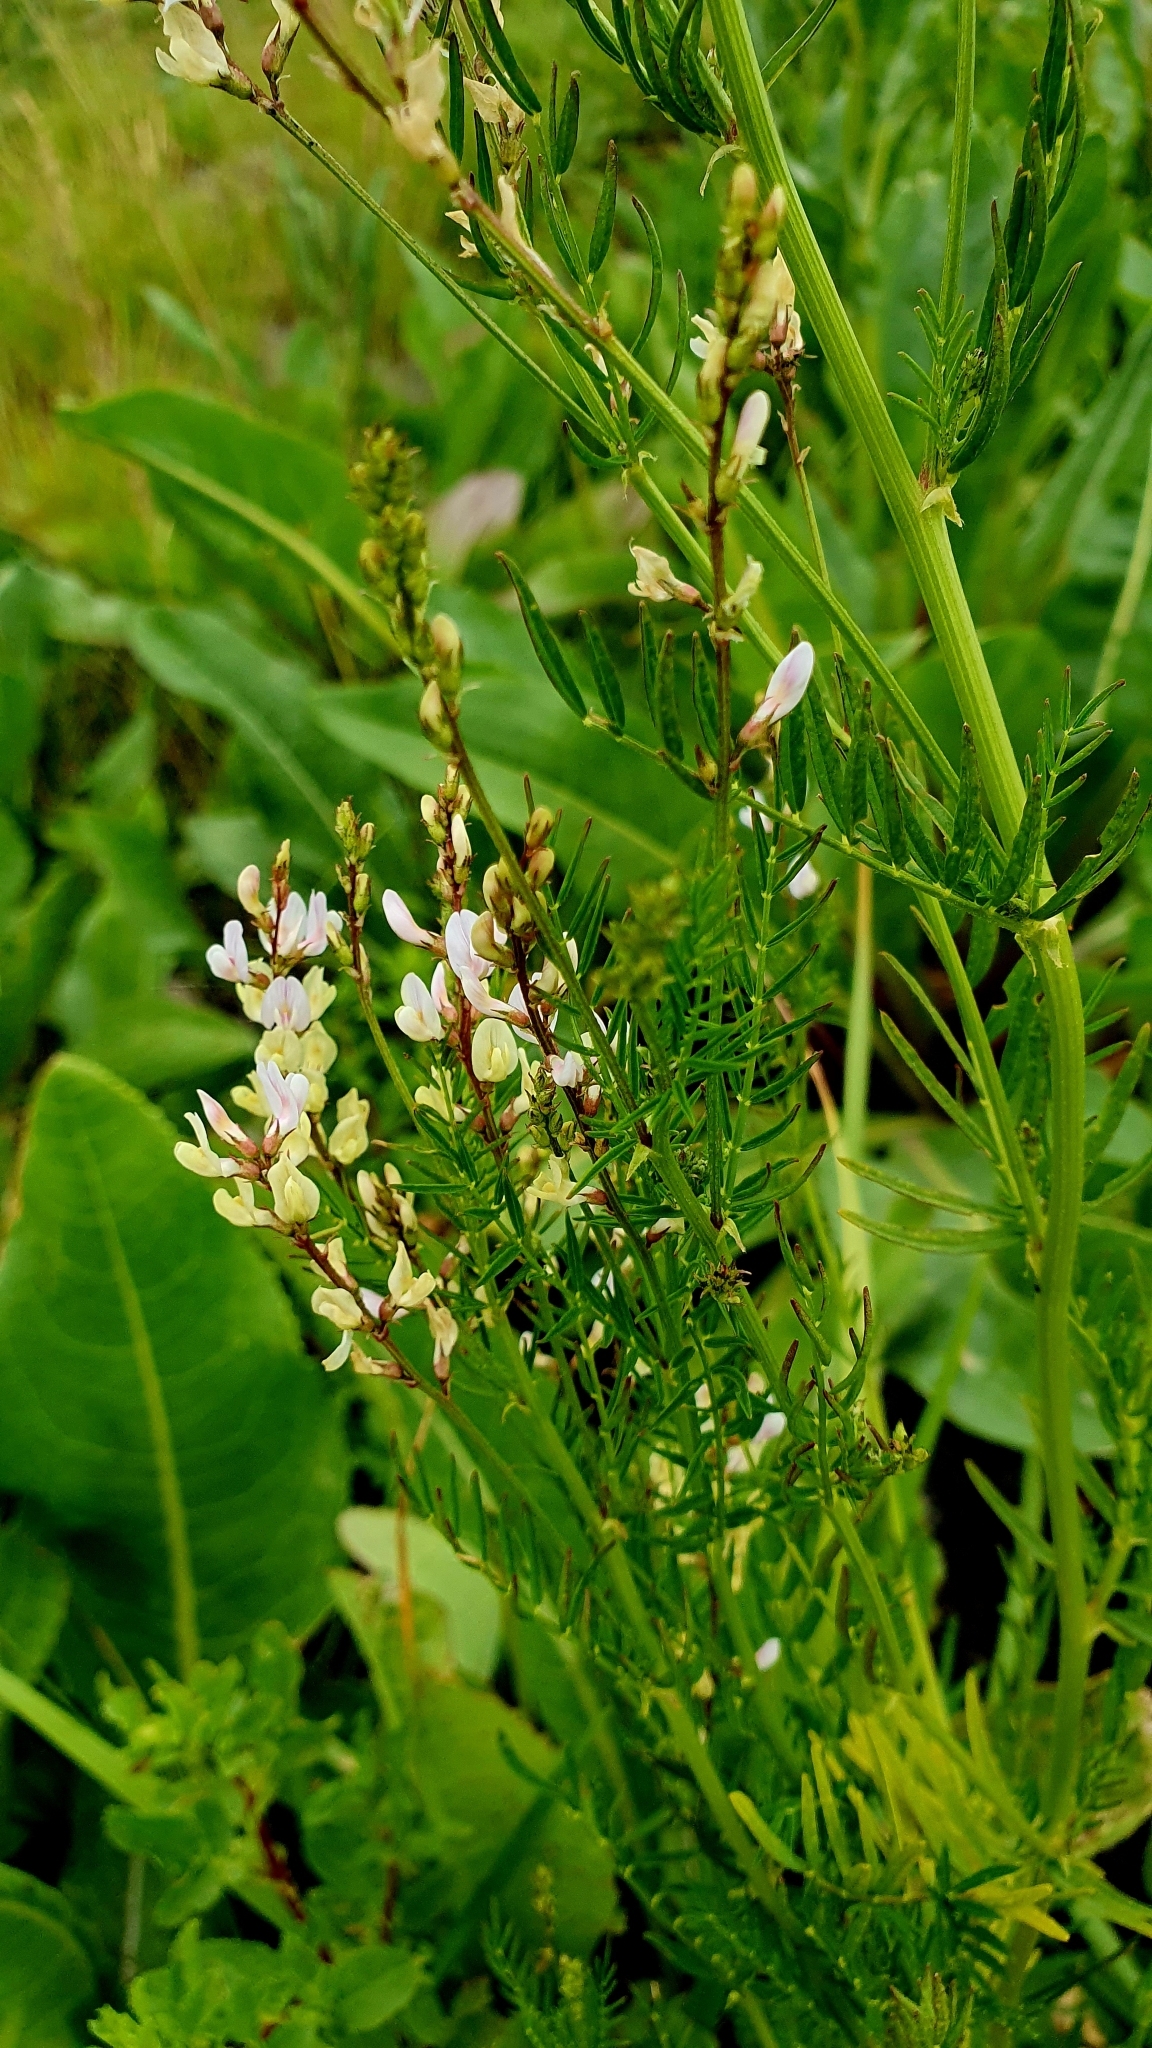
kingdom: Plantae
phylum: Tracheophyta
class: Magnoliopsida
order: Fabales
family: Fabaceae
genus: Astragalus
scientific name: Astragalus sulcatus
